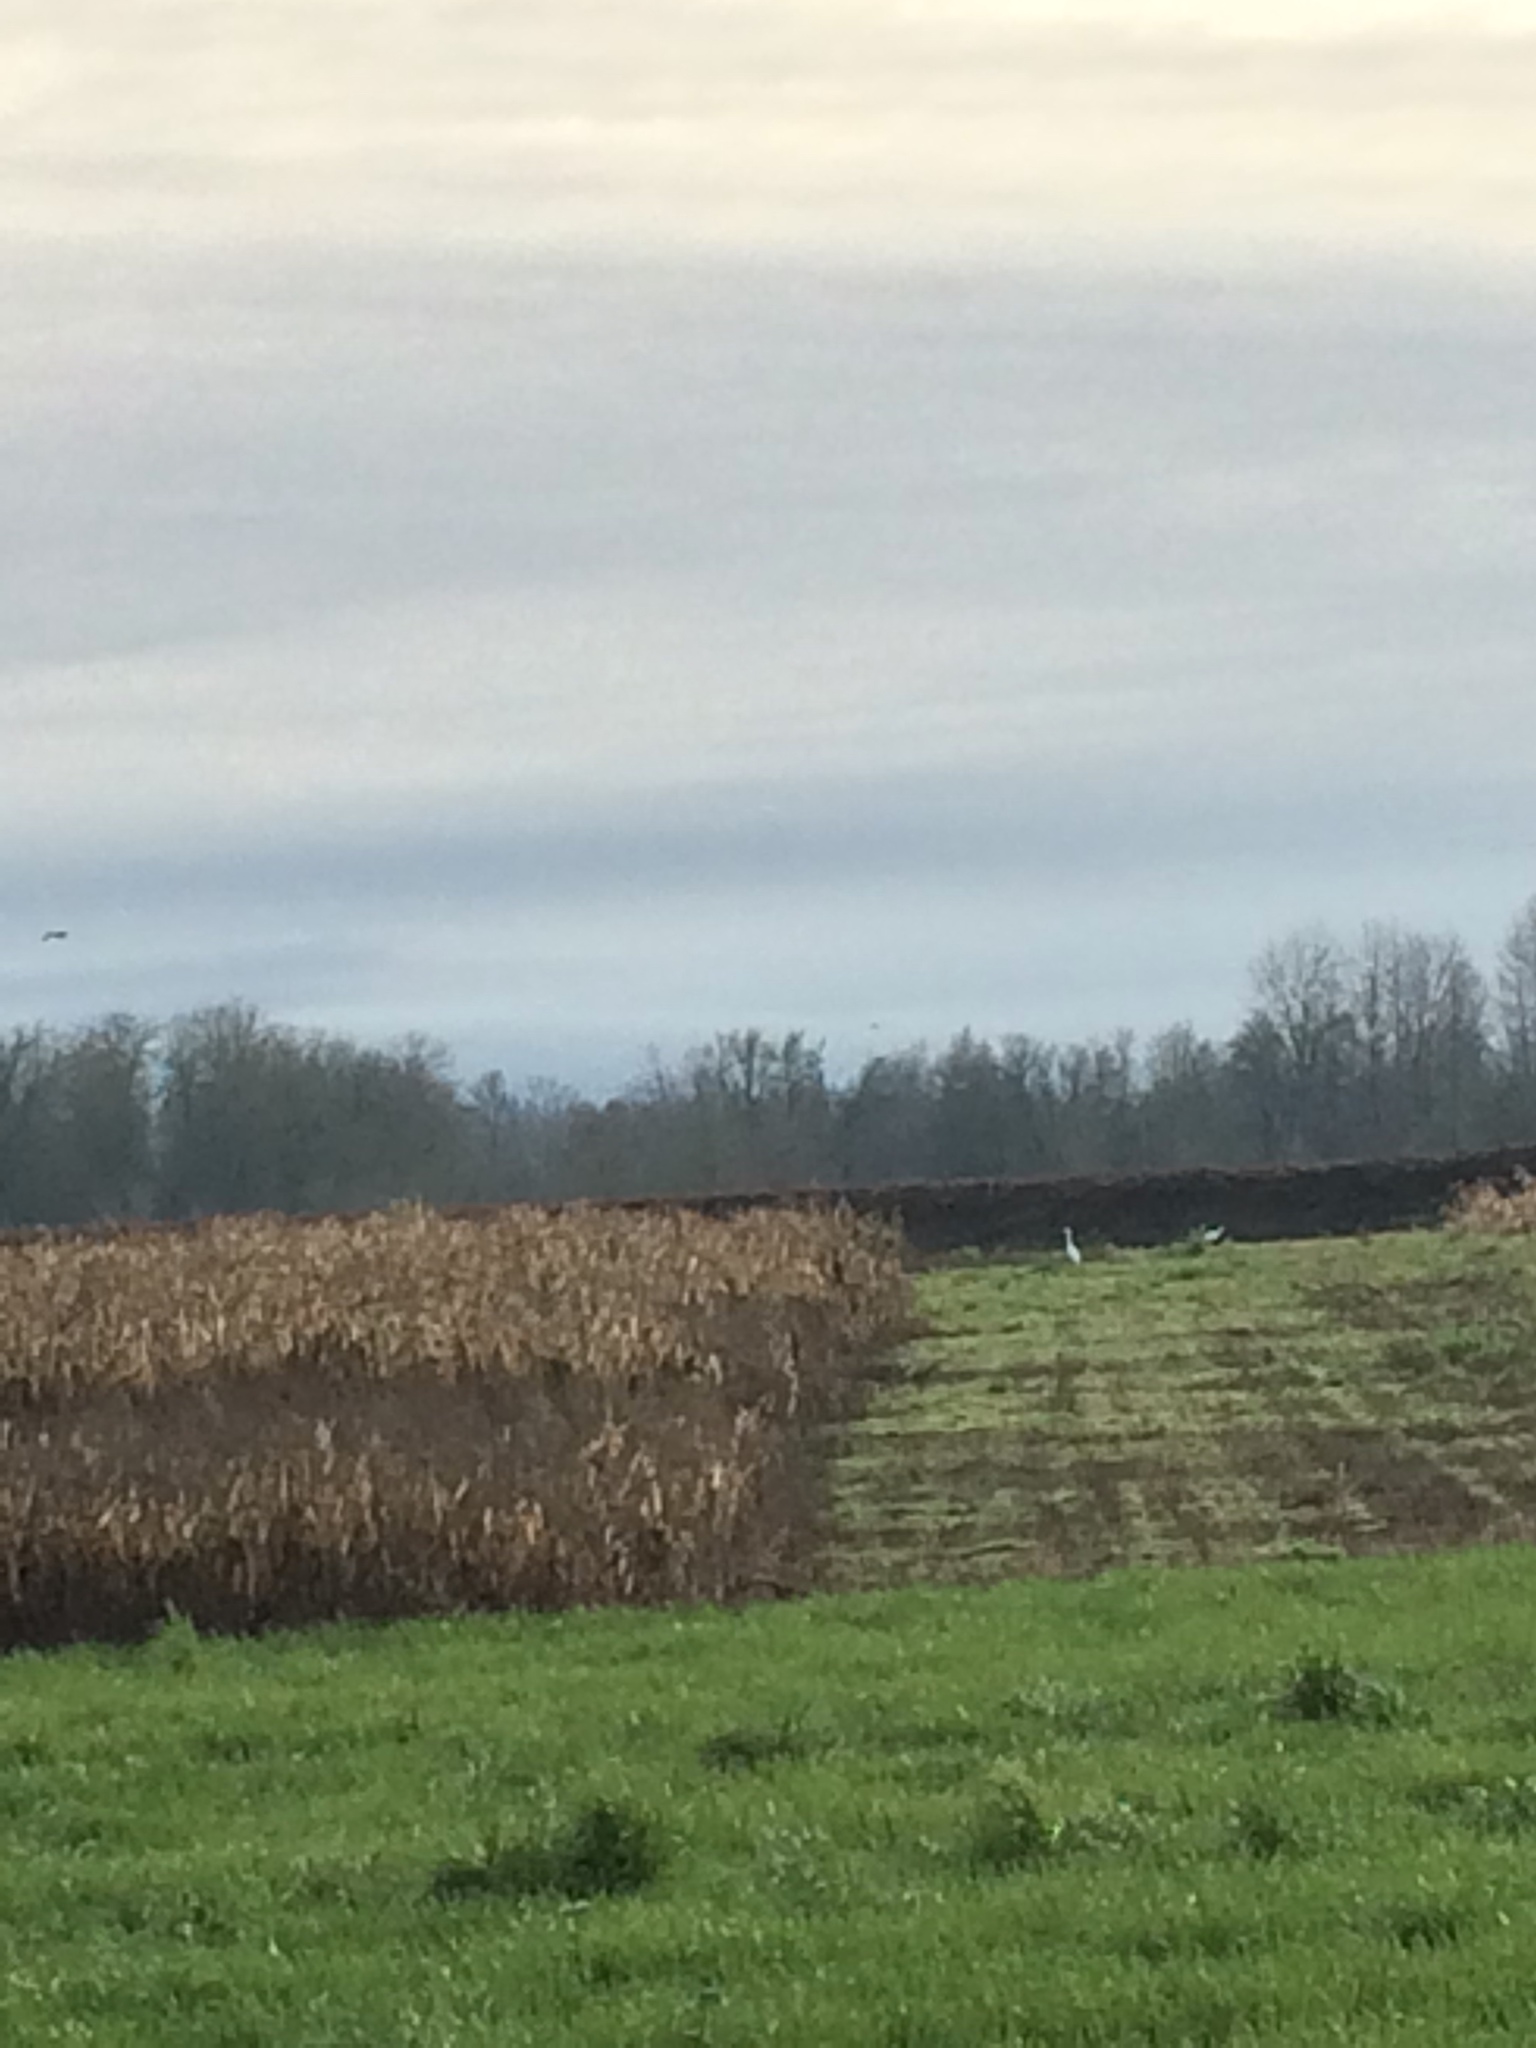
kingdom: Animalia
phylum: Chordata
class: Aves
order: Pelecaniformes
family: Ardeidae
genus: Ardea
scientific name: Ardea alba
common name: Great egret
